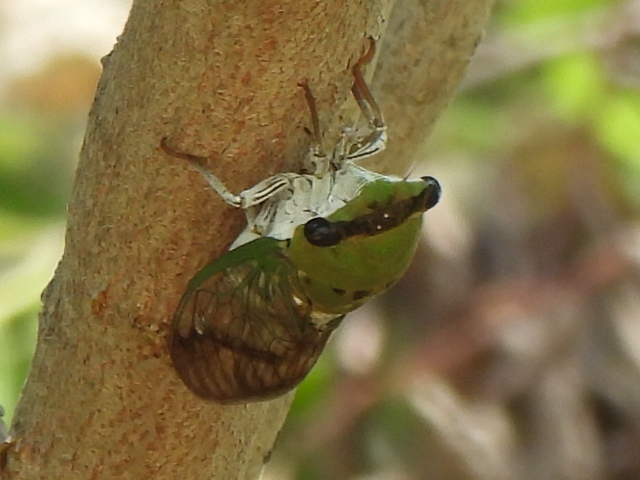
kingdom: Animalia
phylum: Arthropoda
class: Insecta
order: Hemiptera
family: Cicadidae
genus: Neotibicen
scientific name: Neotibicen superbus
